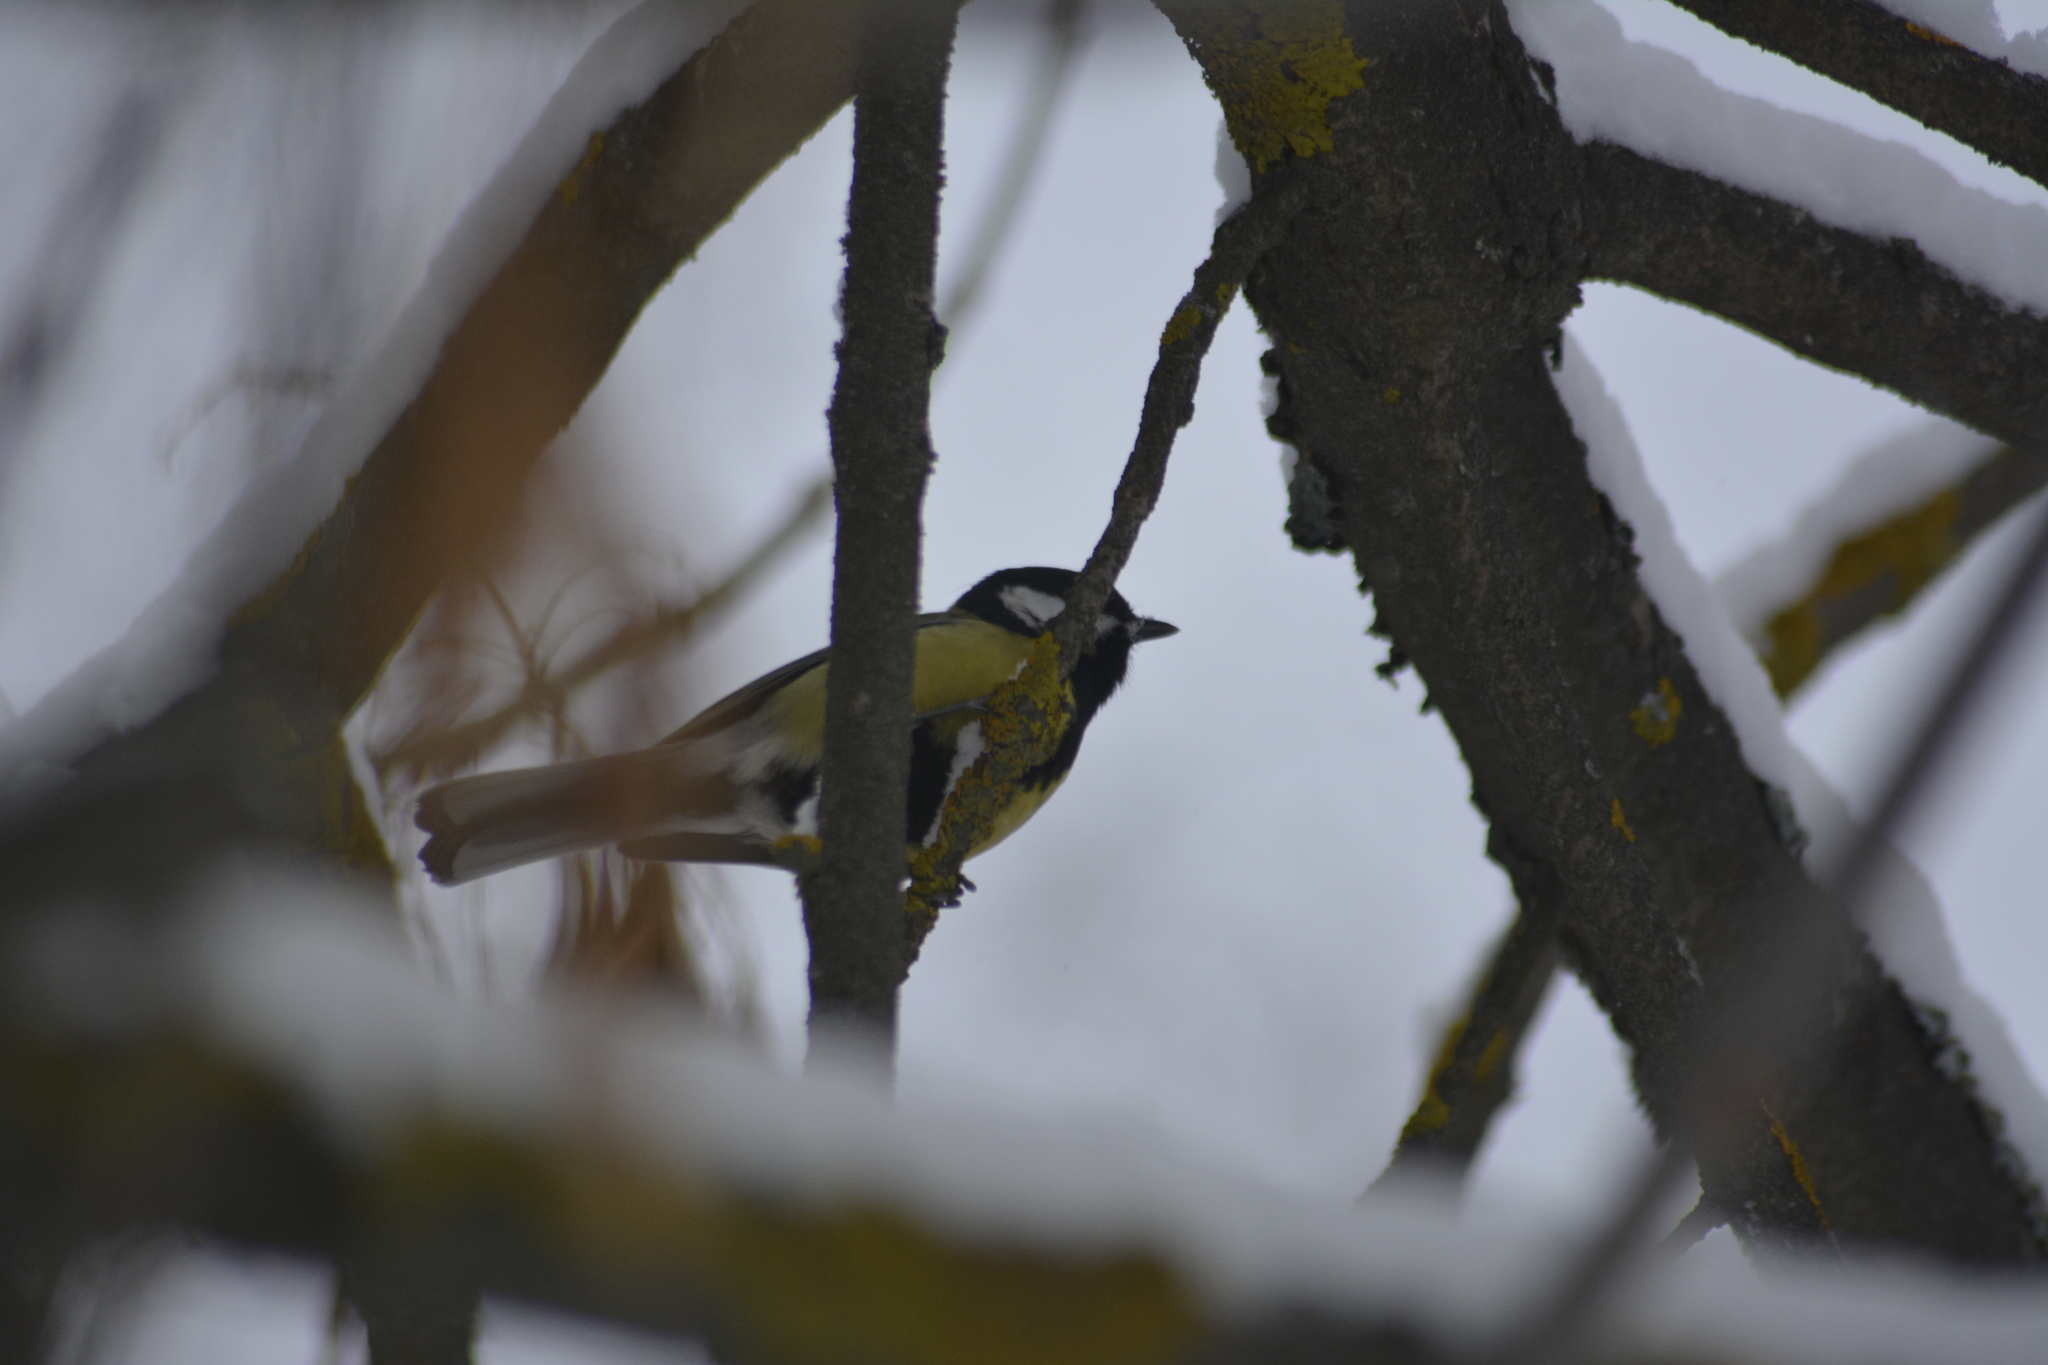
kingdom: Animalia
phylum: Chordata
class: Aves
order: Passeriformes
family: Paridae
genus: Parus
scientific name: Parus major
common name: Great tit
